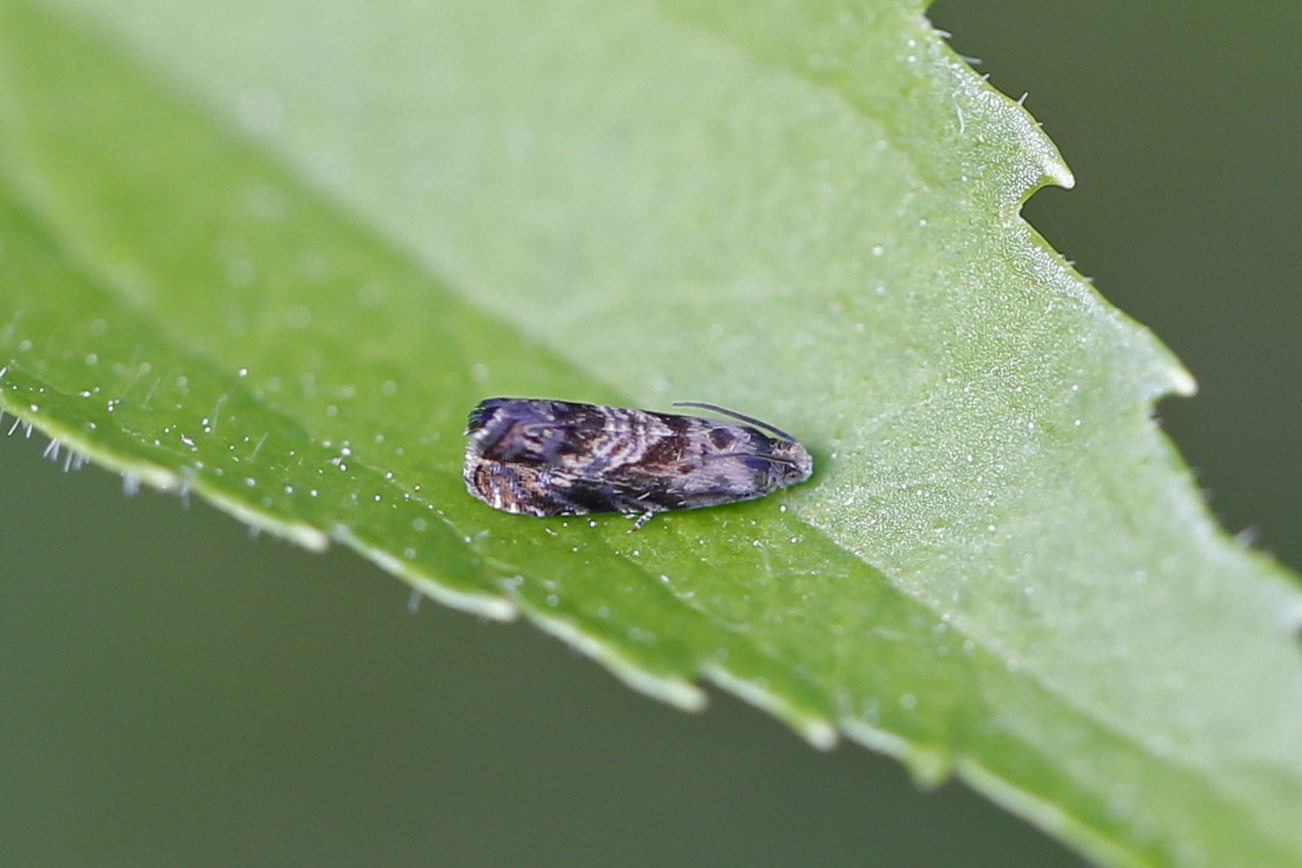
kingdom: Animalia
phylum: Arthropoda
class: Insecta
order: Lepidoptera
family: Noctuidae
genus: Aspila
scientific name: Aspila
